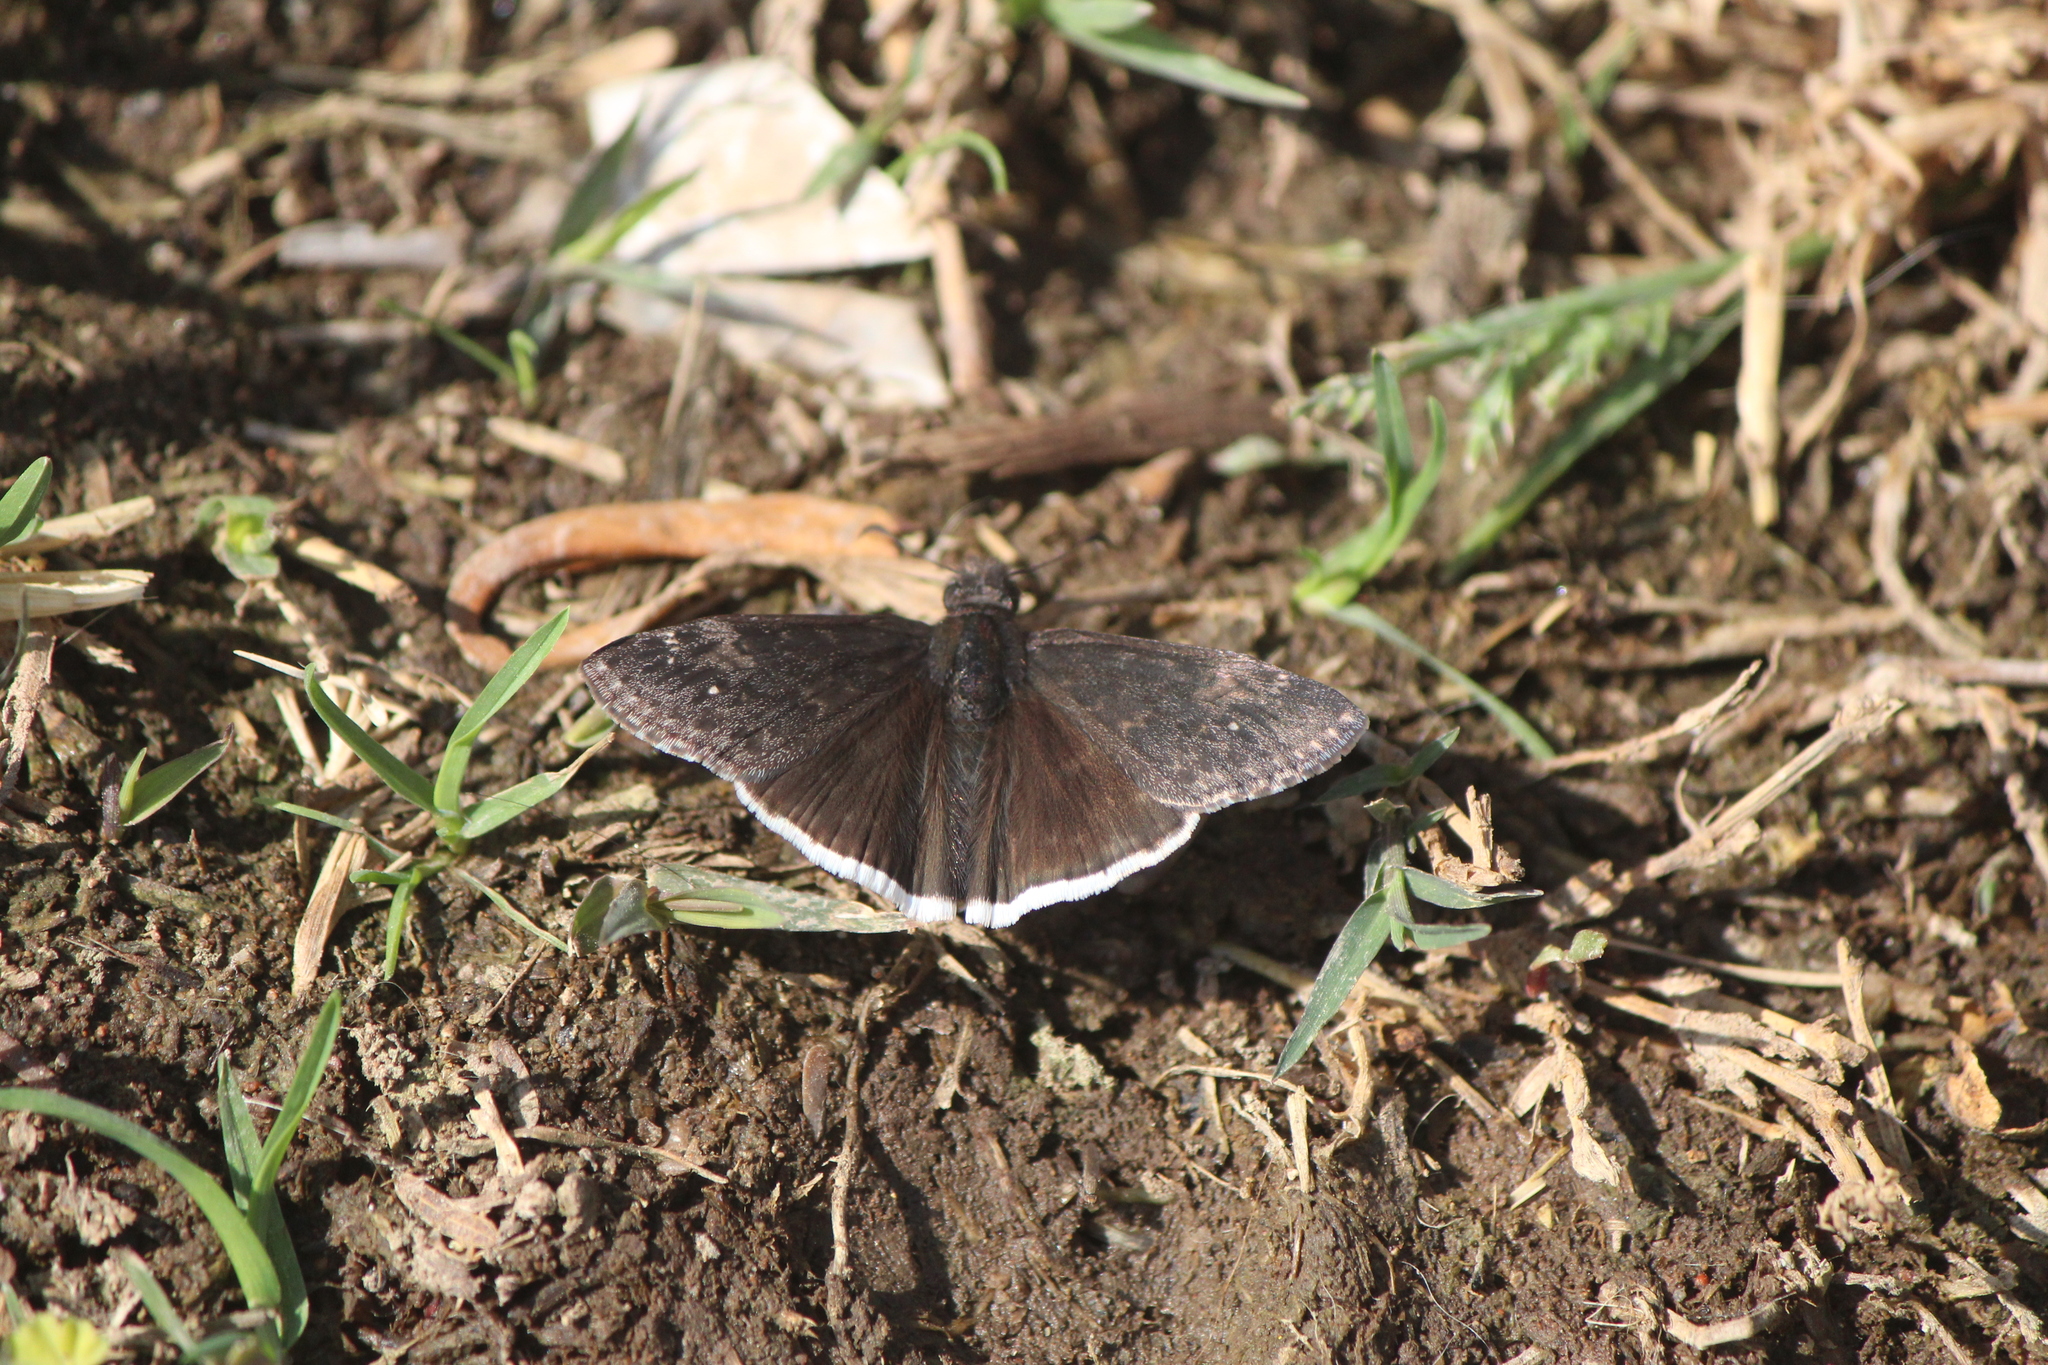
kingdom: Animalia
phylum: Arthropoda
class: Insecta
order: Lepidoptera
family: Hesperiidae
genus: Erynnis
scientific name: Erynnis funeralis
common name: Funereal duskywing
